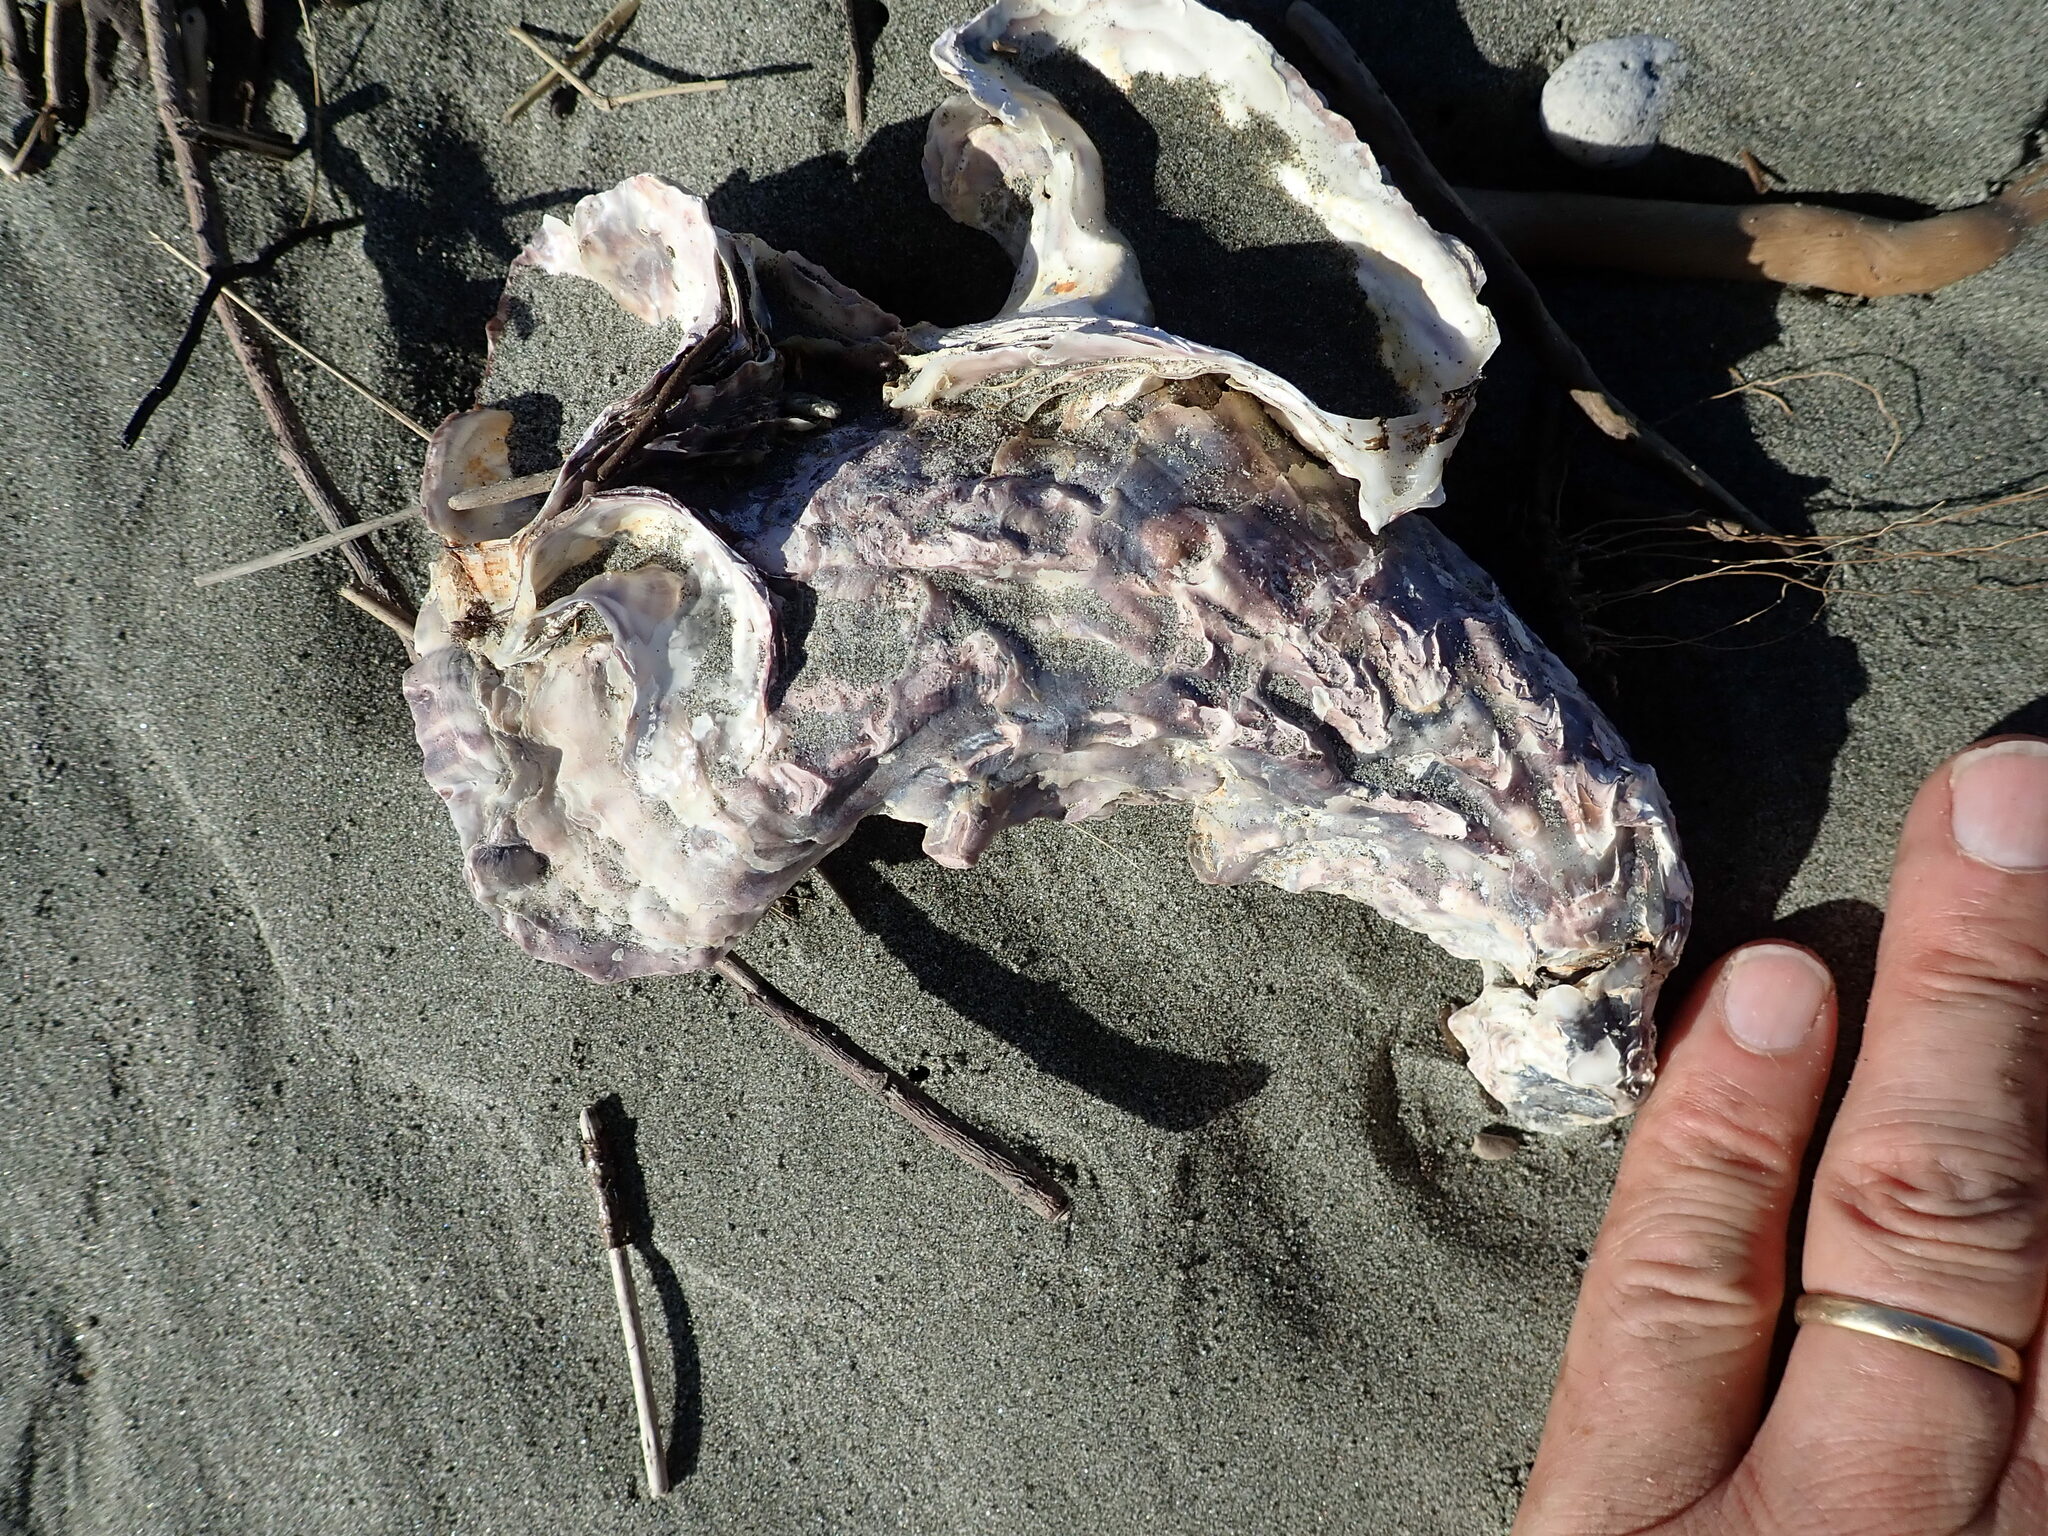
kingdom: Animalia
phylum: Mollusca
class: Bivalvia
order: Ostreida
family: Ostreidae
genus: Magallana
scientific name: Magallana gigas
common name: Pacific oyster
